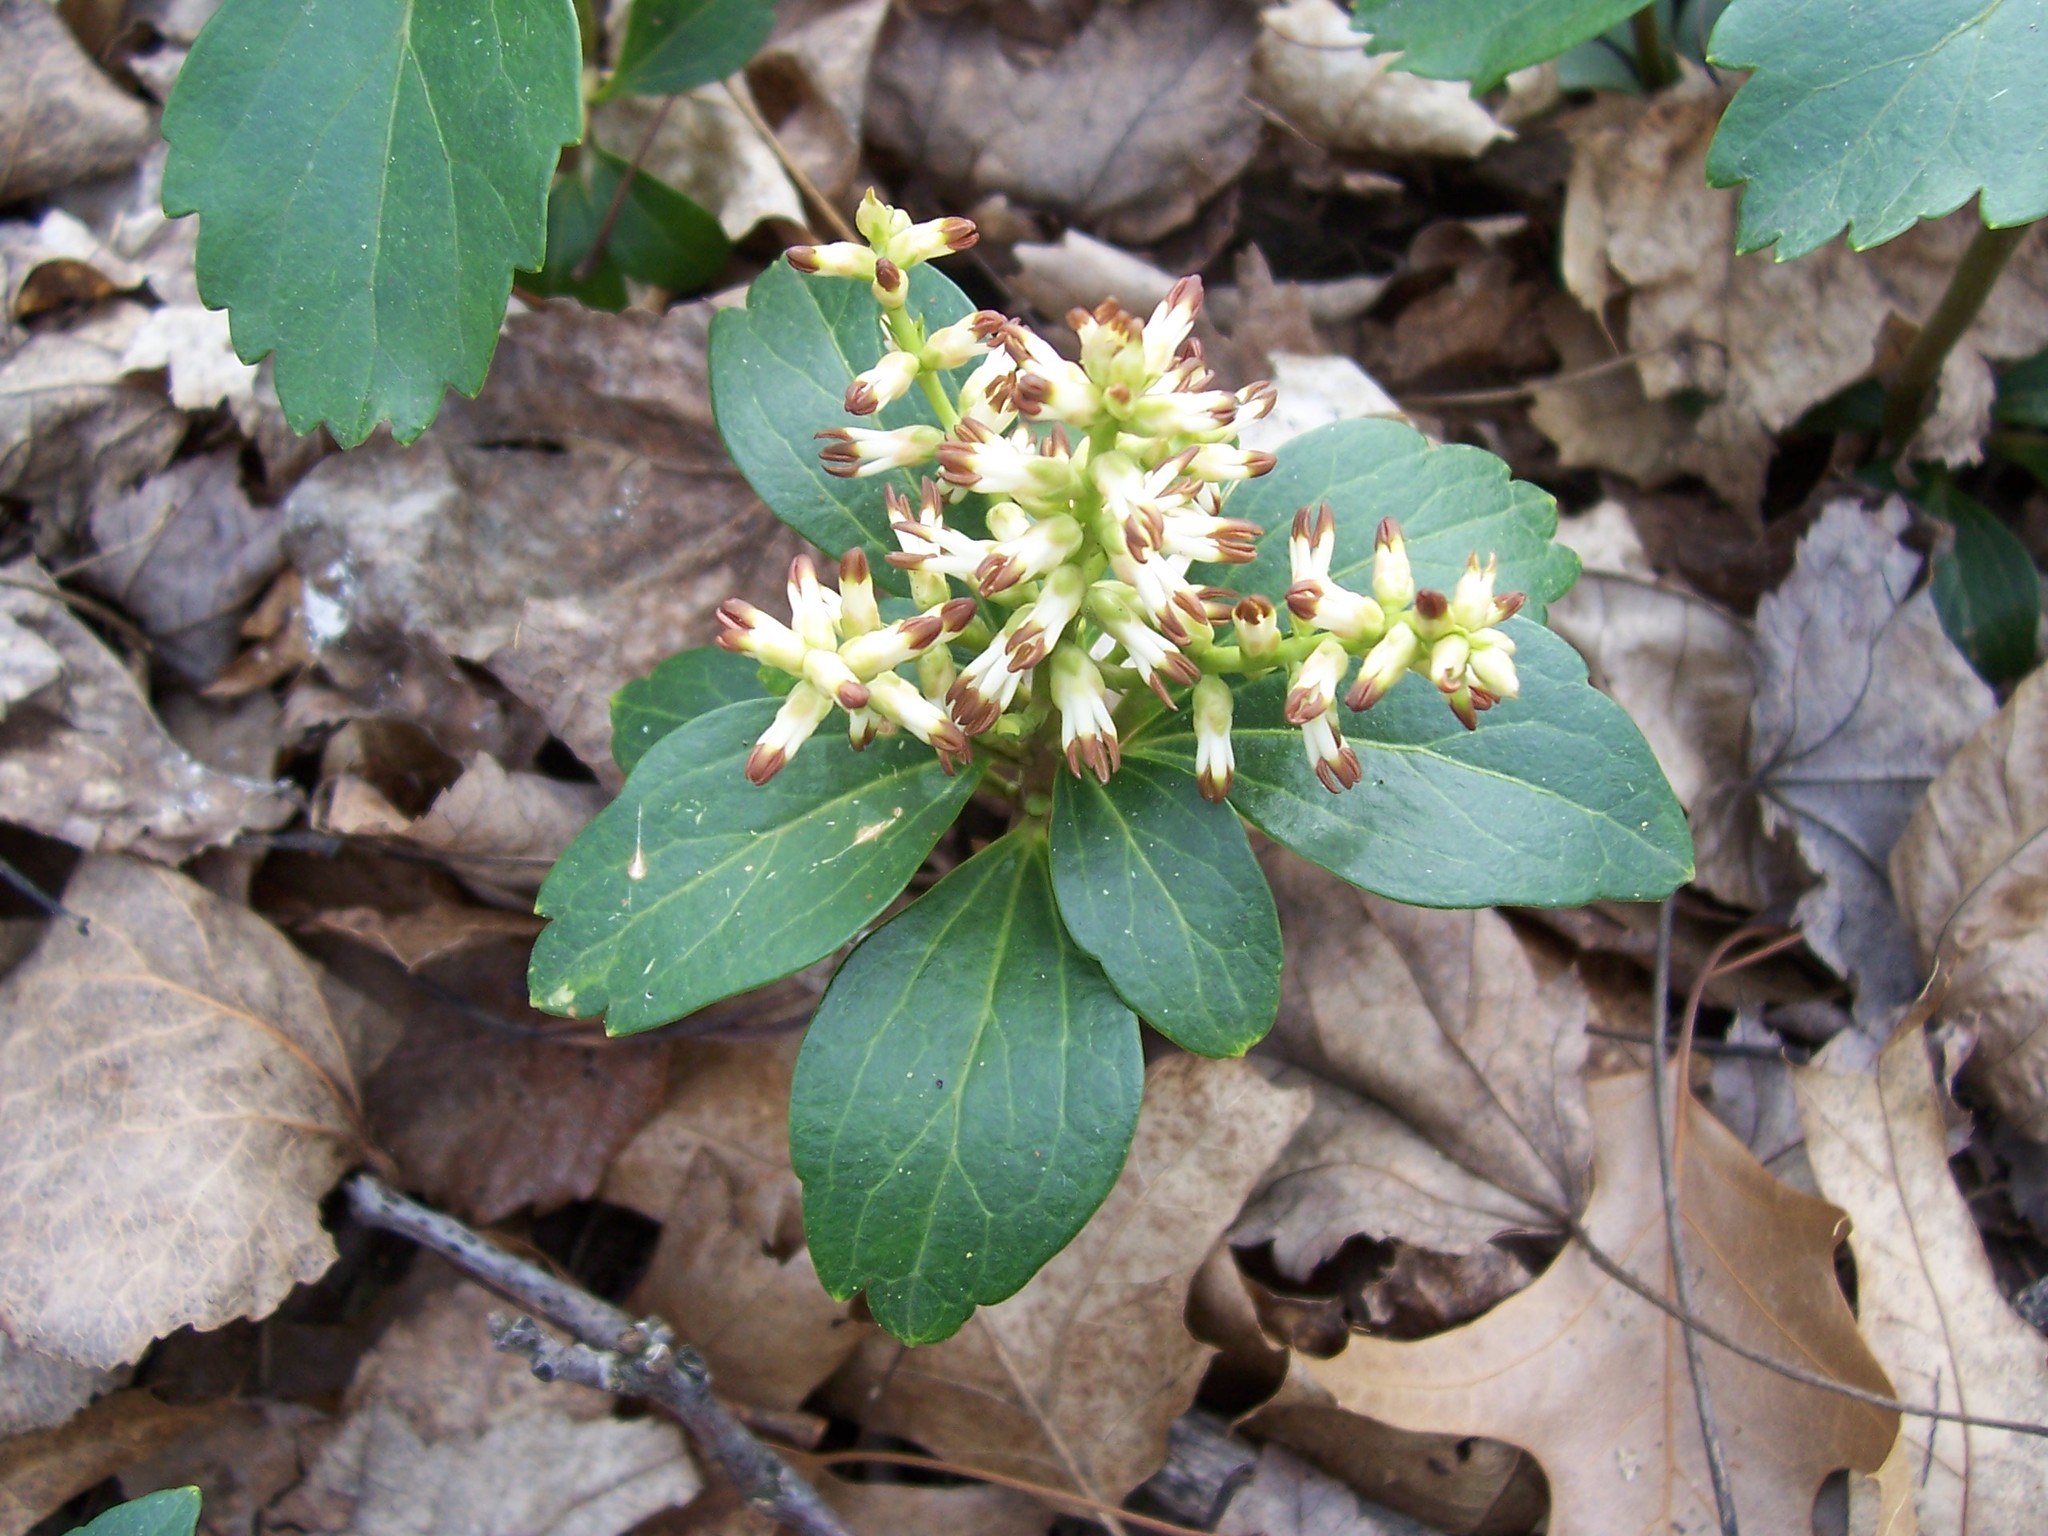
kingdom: Plantae
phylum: Tracheophyta
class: Magnoliopsida
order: Buxales
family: Buxaceae
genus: Pachysandra
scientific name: Pachysandra terminalis
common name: Japanese pachysandra
